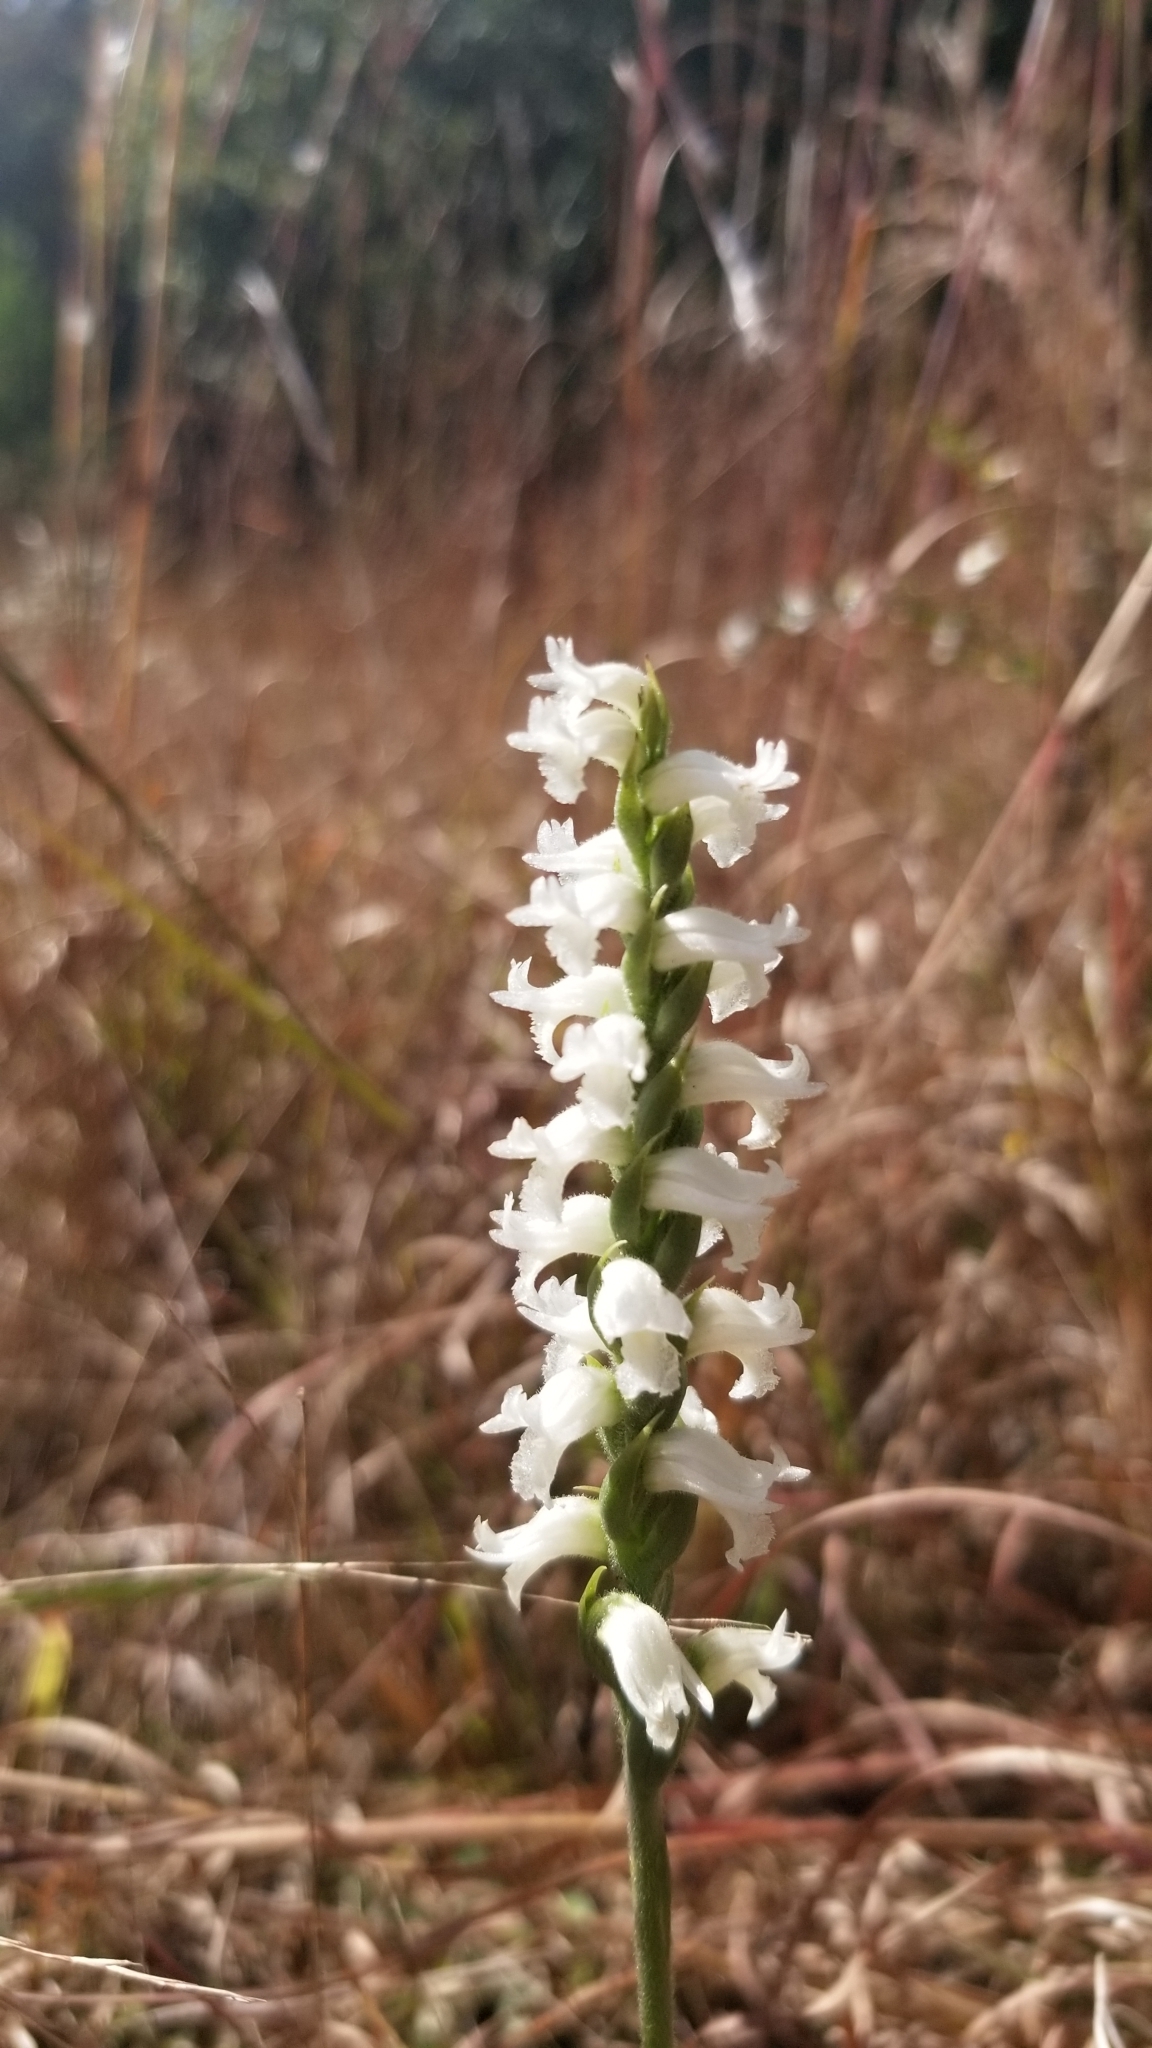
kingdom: Plantae
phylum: Tracheophyta
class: Liliopsida
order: Asparagales
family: Orchidaceae
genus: Spiranthes
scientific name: Spiranthes cernua
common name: Dropping ladies'-tresses
